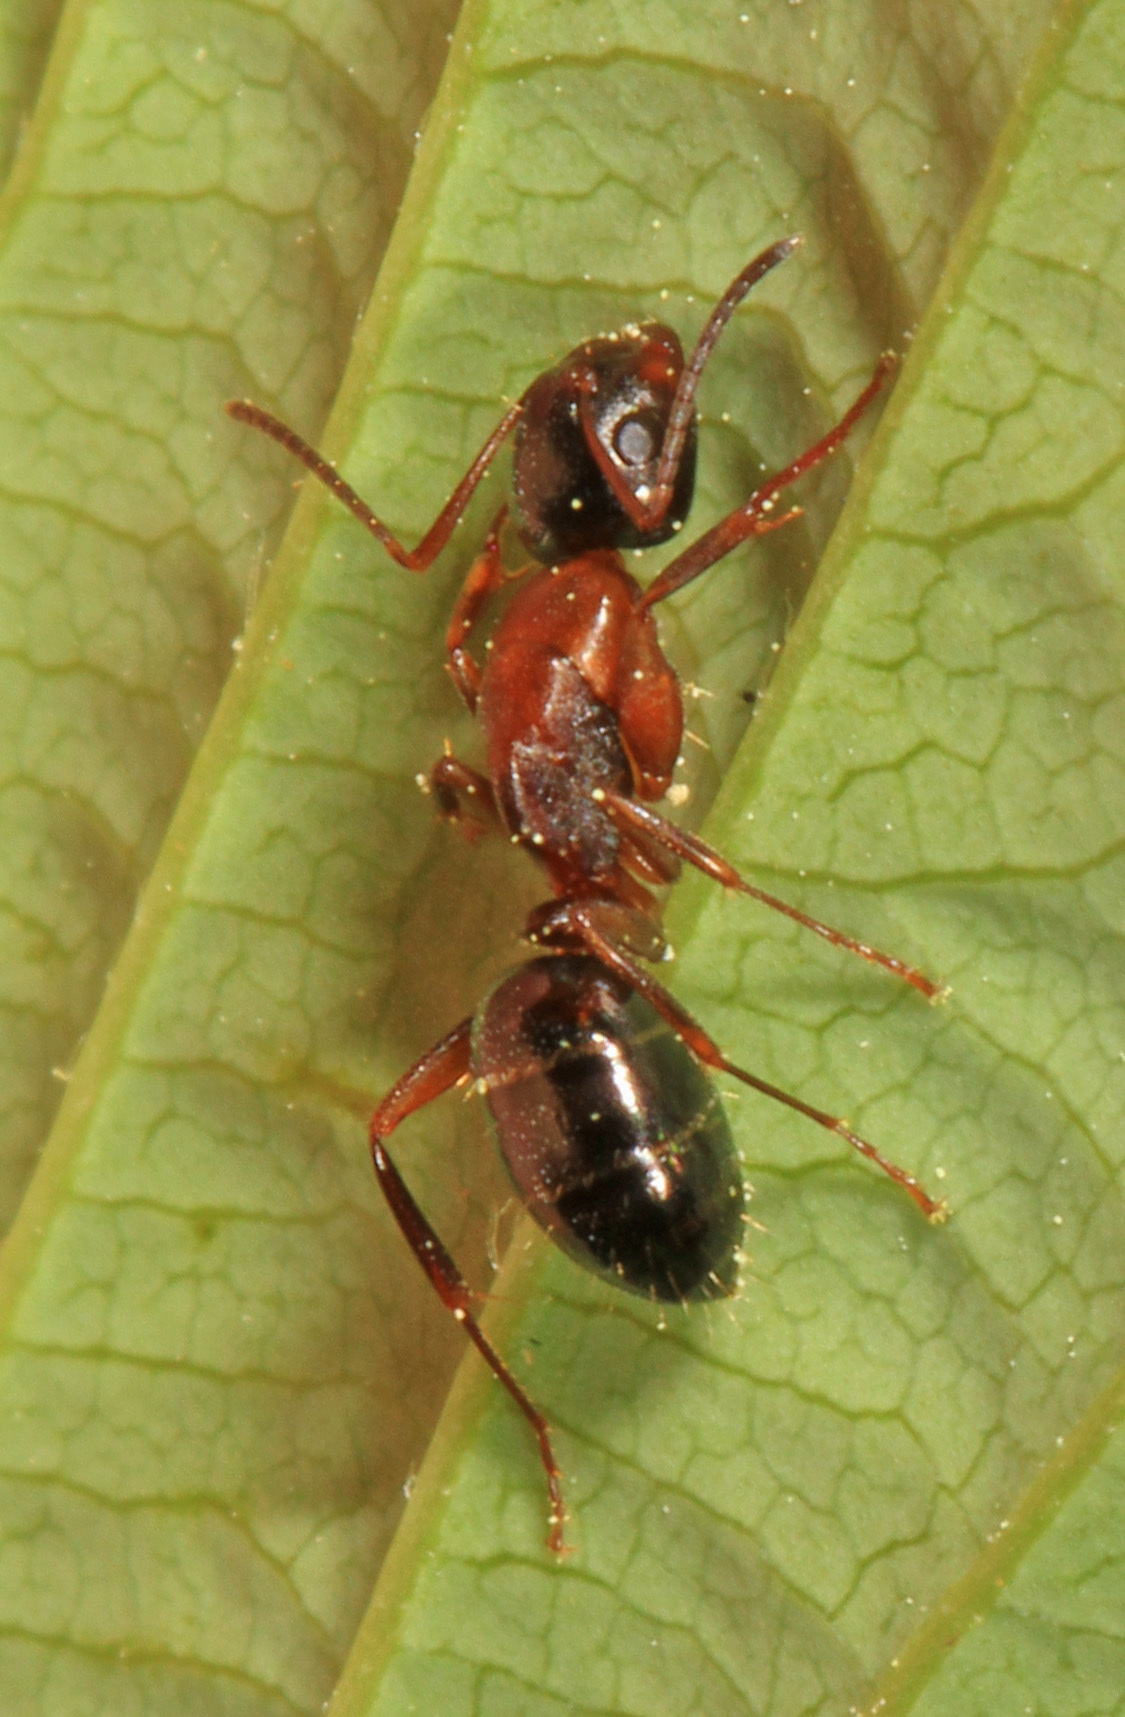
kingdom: Animalia
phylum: Arthropoda
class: Insecta
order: Hymenoptera
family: Formicidae
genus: Camponotus
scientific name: Camponotus nearcticus
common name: Smaller carpenter ant
